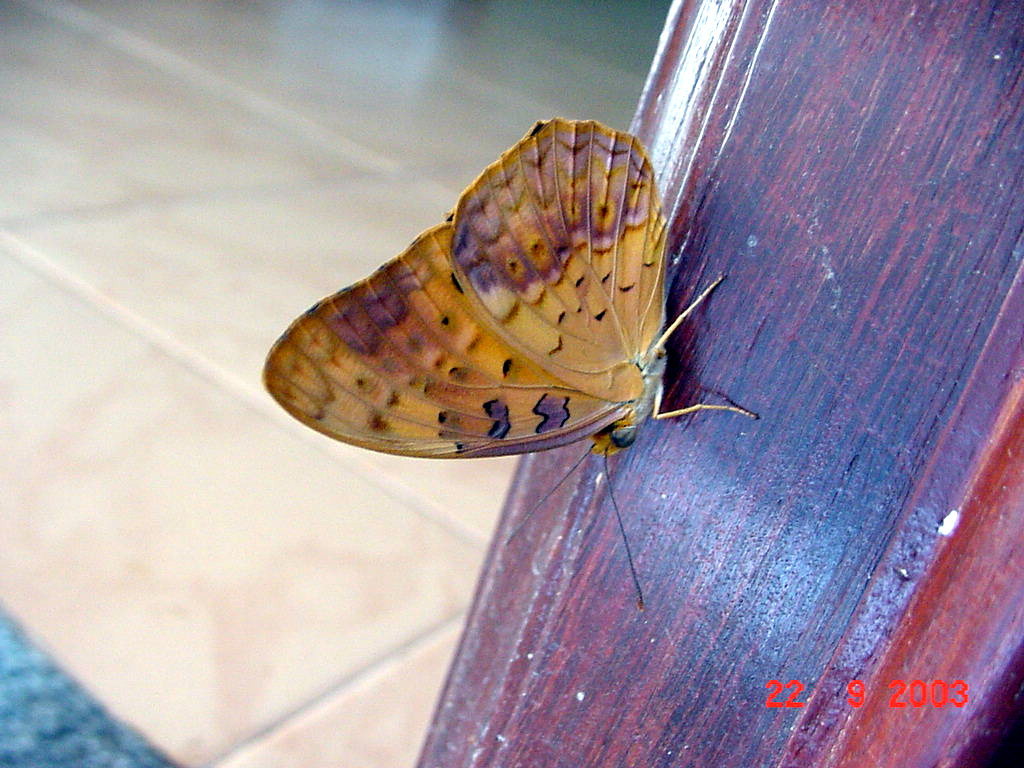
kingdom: Animalia
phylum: Arthropoda
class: Insecta
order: Lepidoptera
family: Nymphalidae
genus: Phalanta
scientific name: Phalanta phalantha
